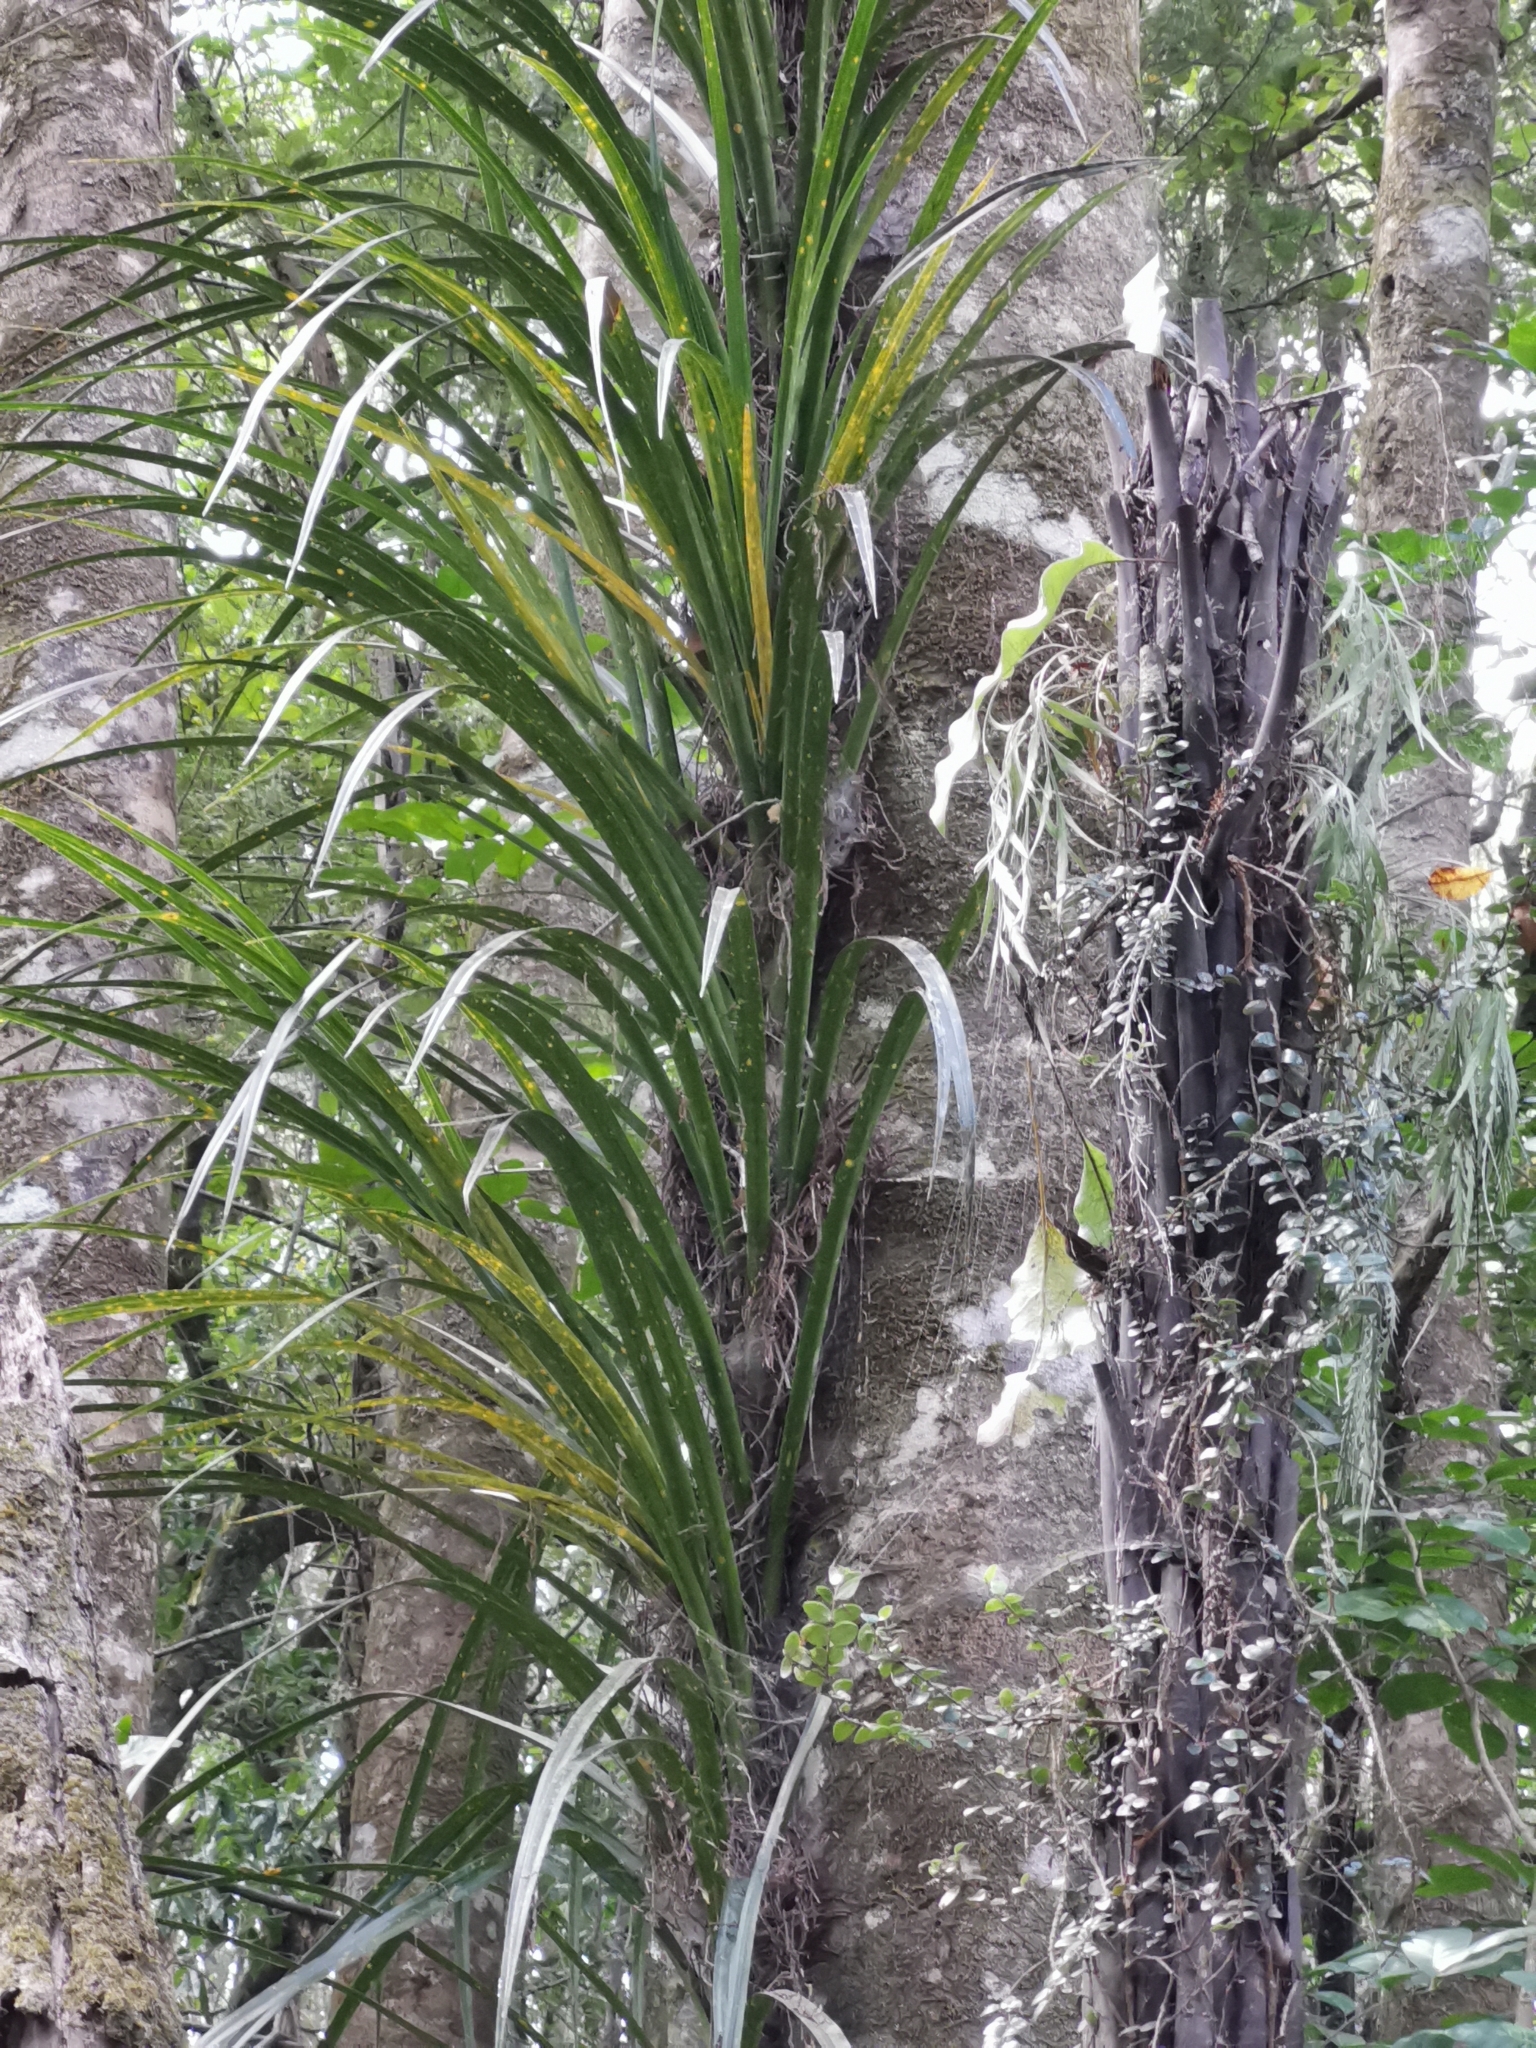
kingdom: Plantae
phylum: Tracheophyta
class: Liliopsida
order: Pandanales
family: Pandanaceae
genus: Freycinetia
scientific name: Freycinetia banksii
